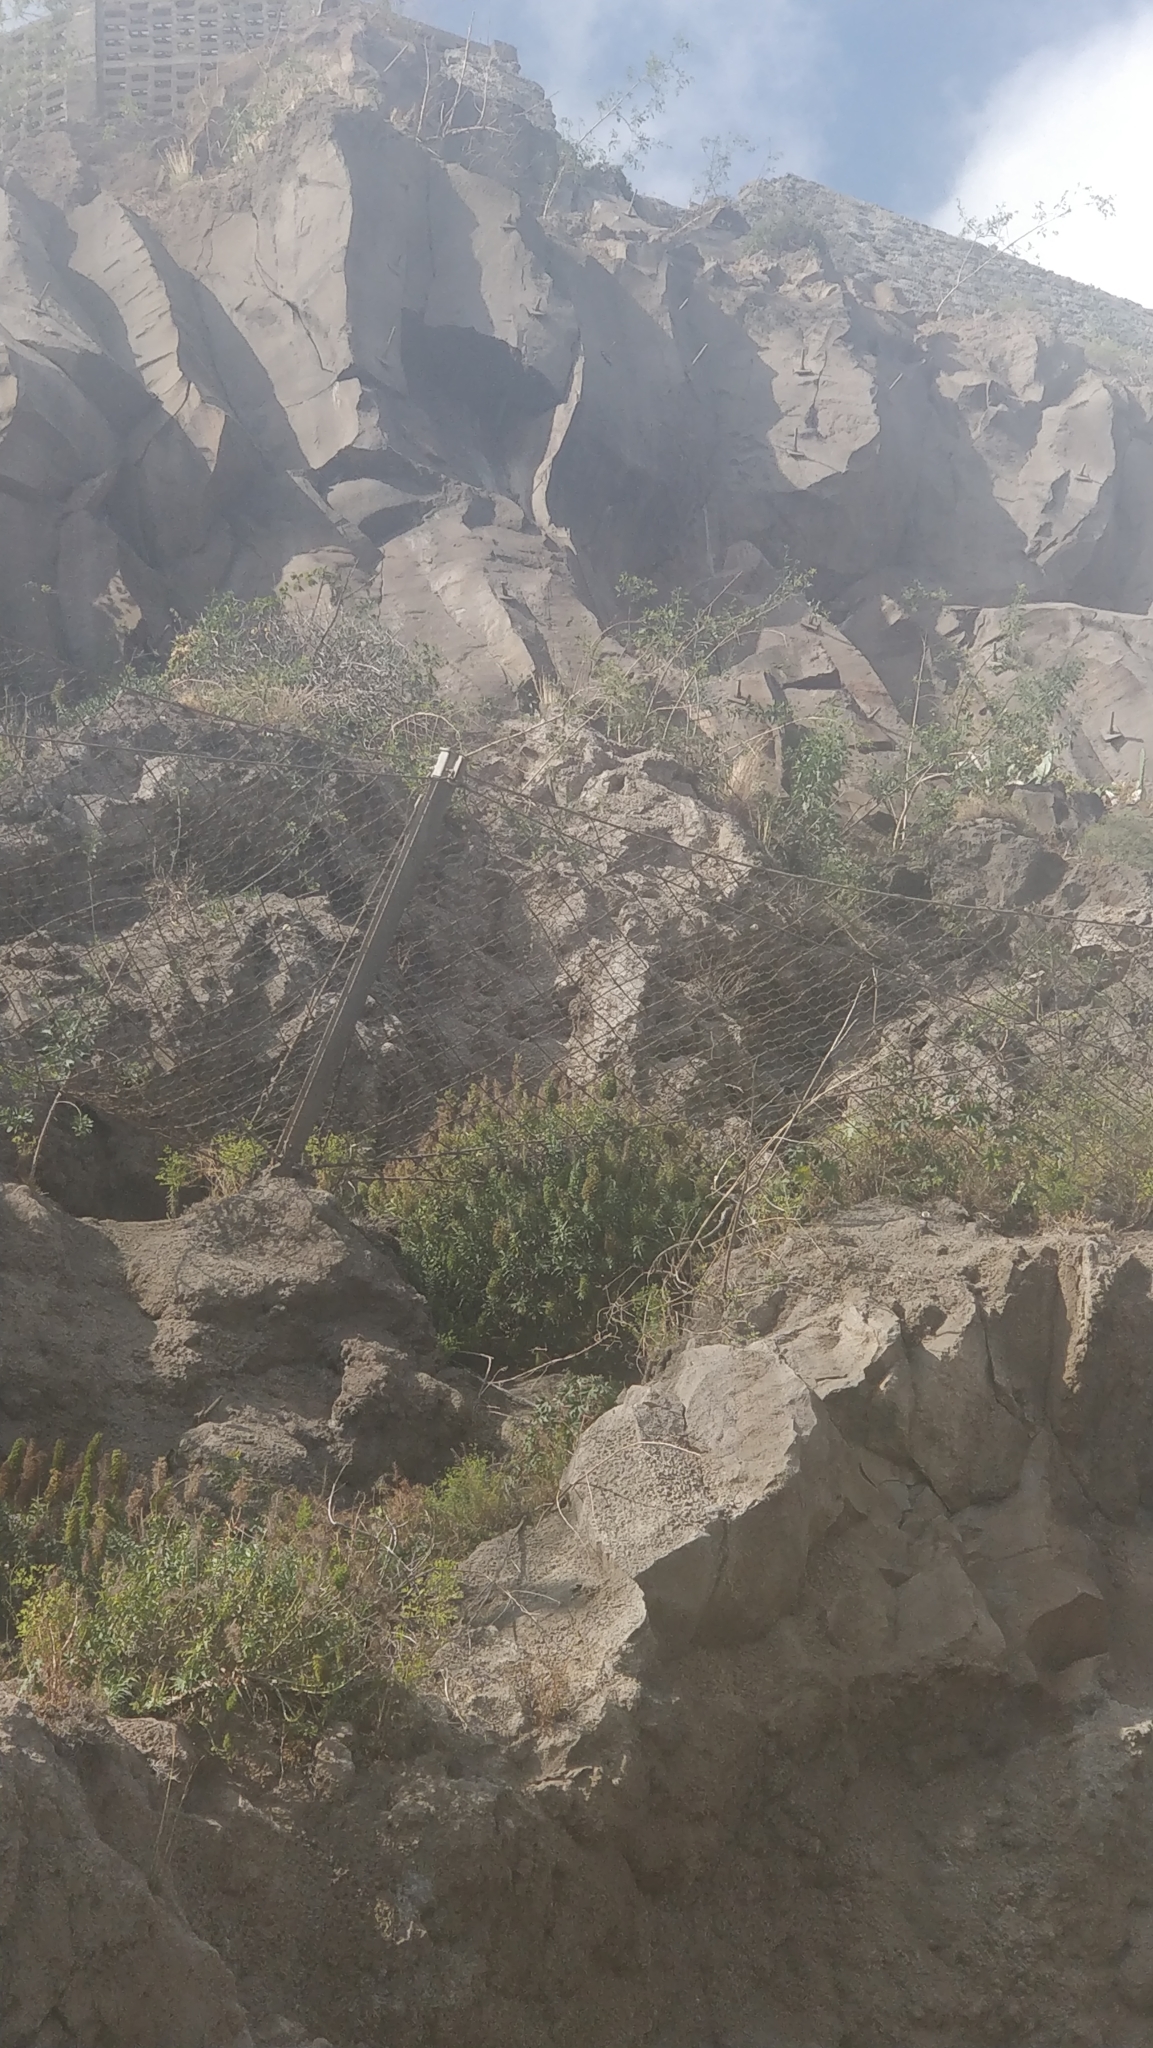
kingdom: Plantae
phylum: Tracheophyta
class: Magnoliopsida
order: Boraginales
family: Boraginaceae
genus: Echium
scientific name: Echium nervosum
